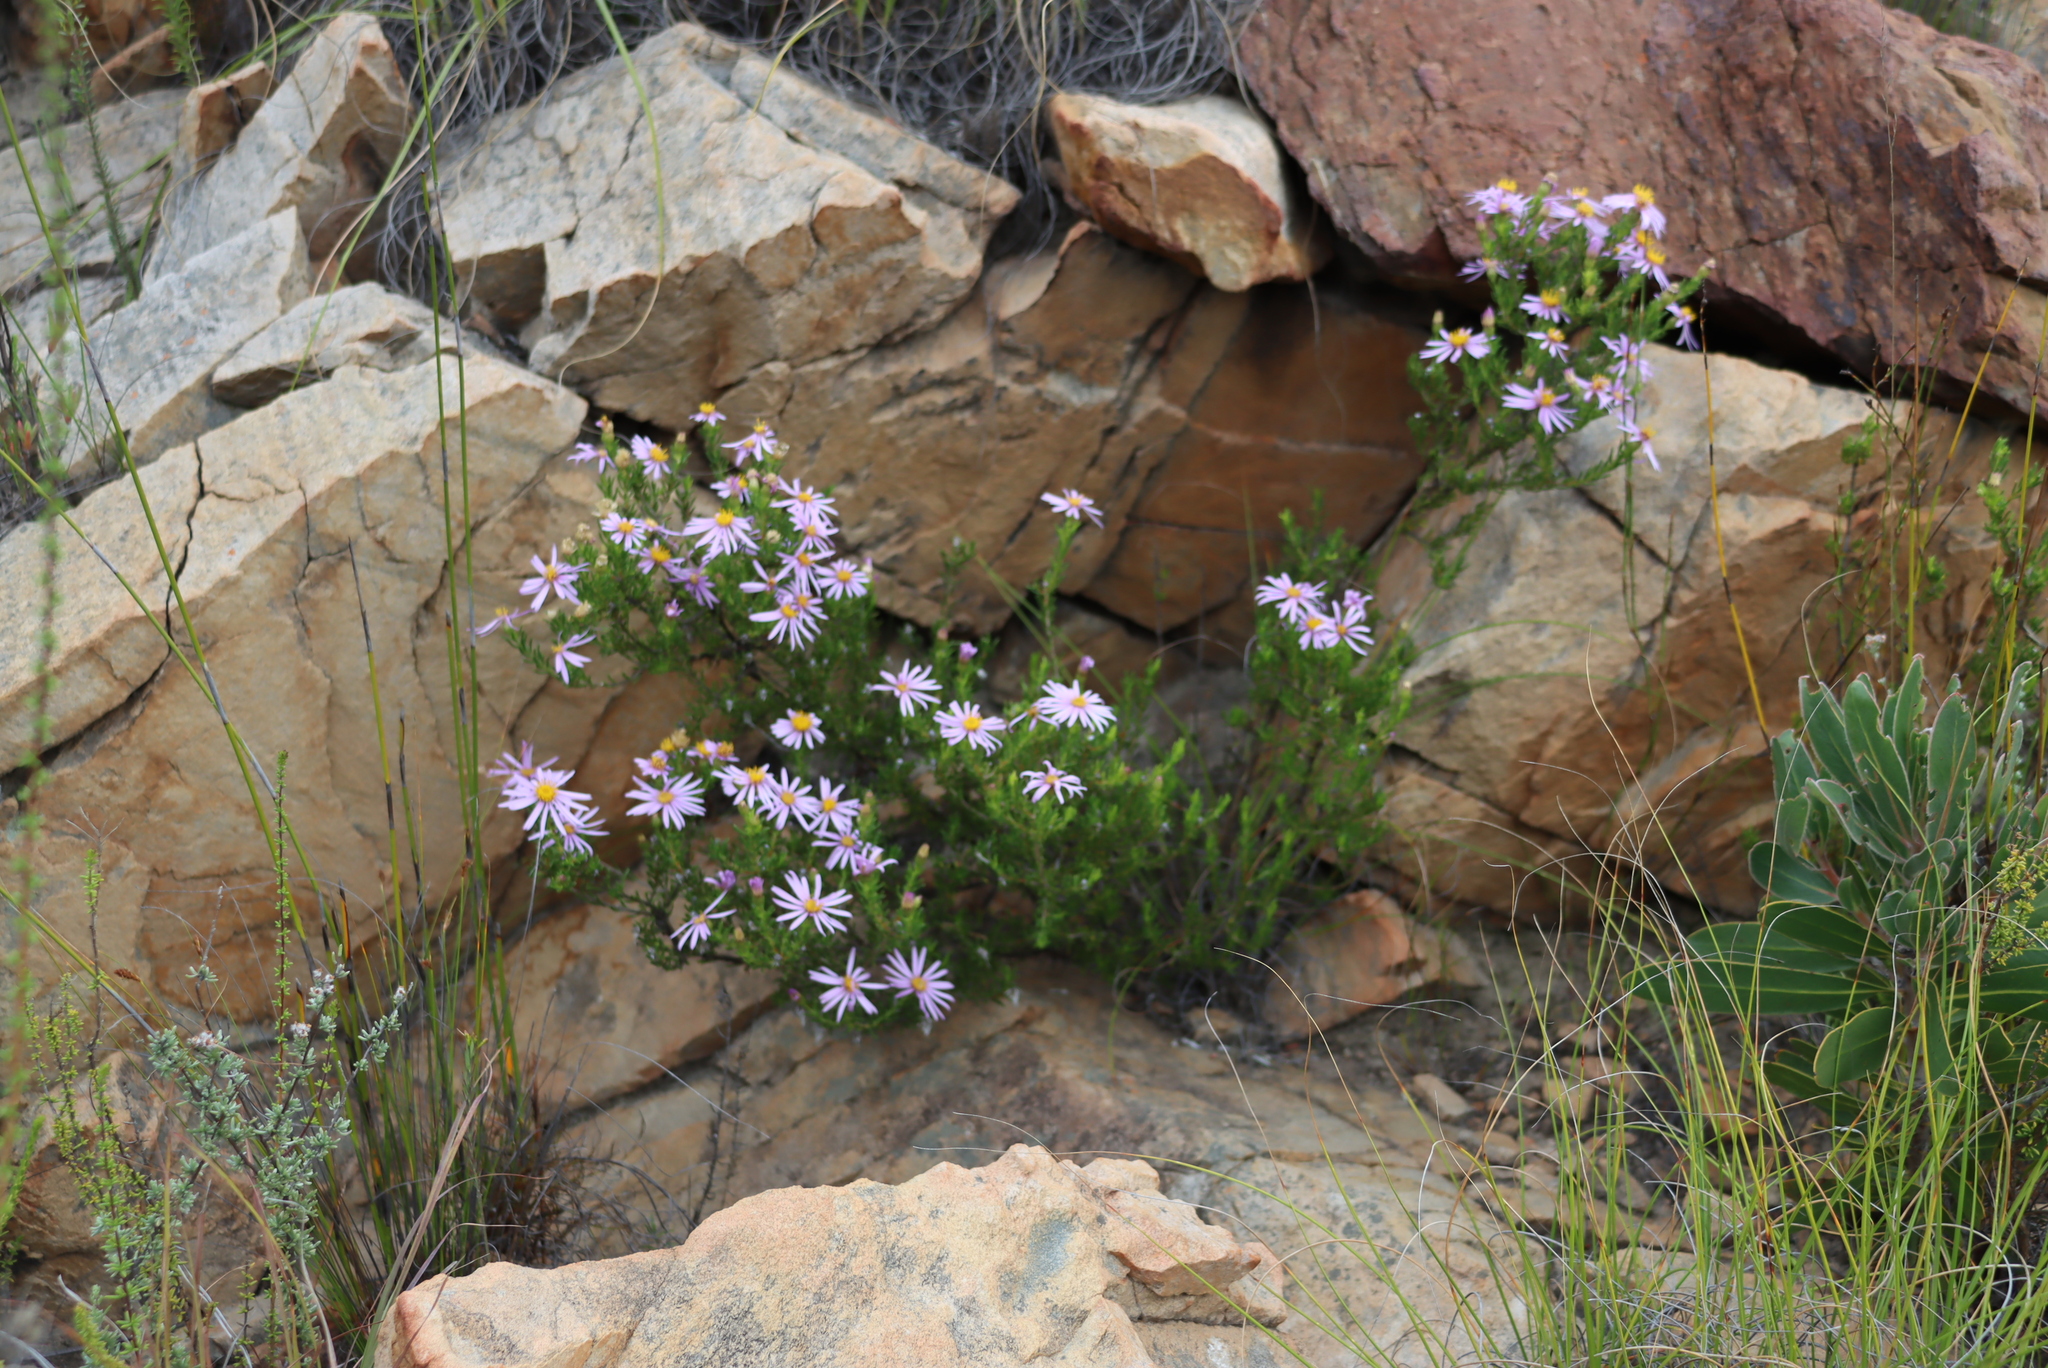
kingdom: Plantae
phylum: Tracheophyta
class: Magnoliopsida
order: Asterales
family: Asteraceae
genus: Felicia
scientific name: Felicia filifolia
